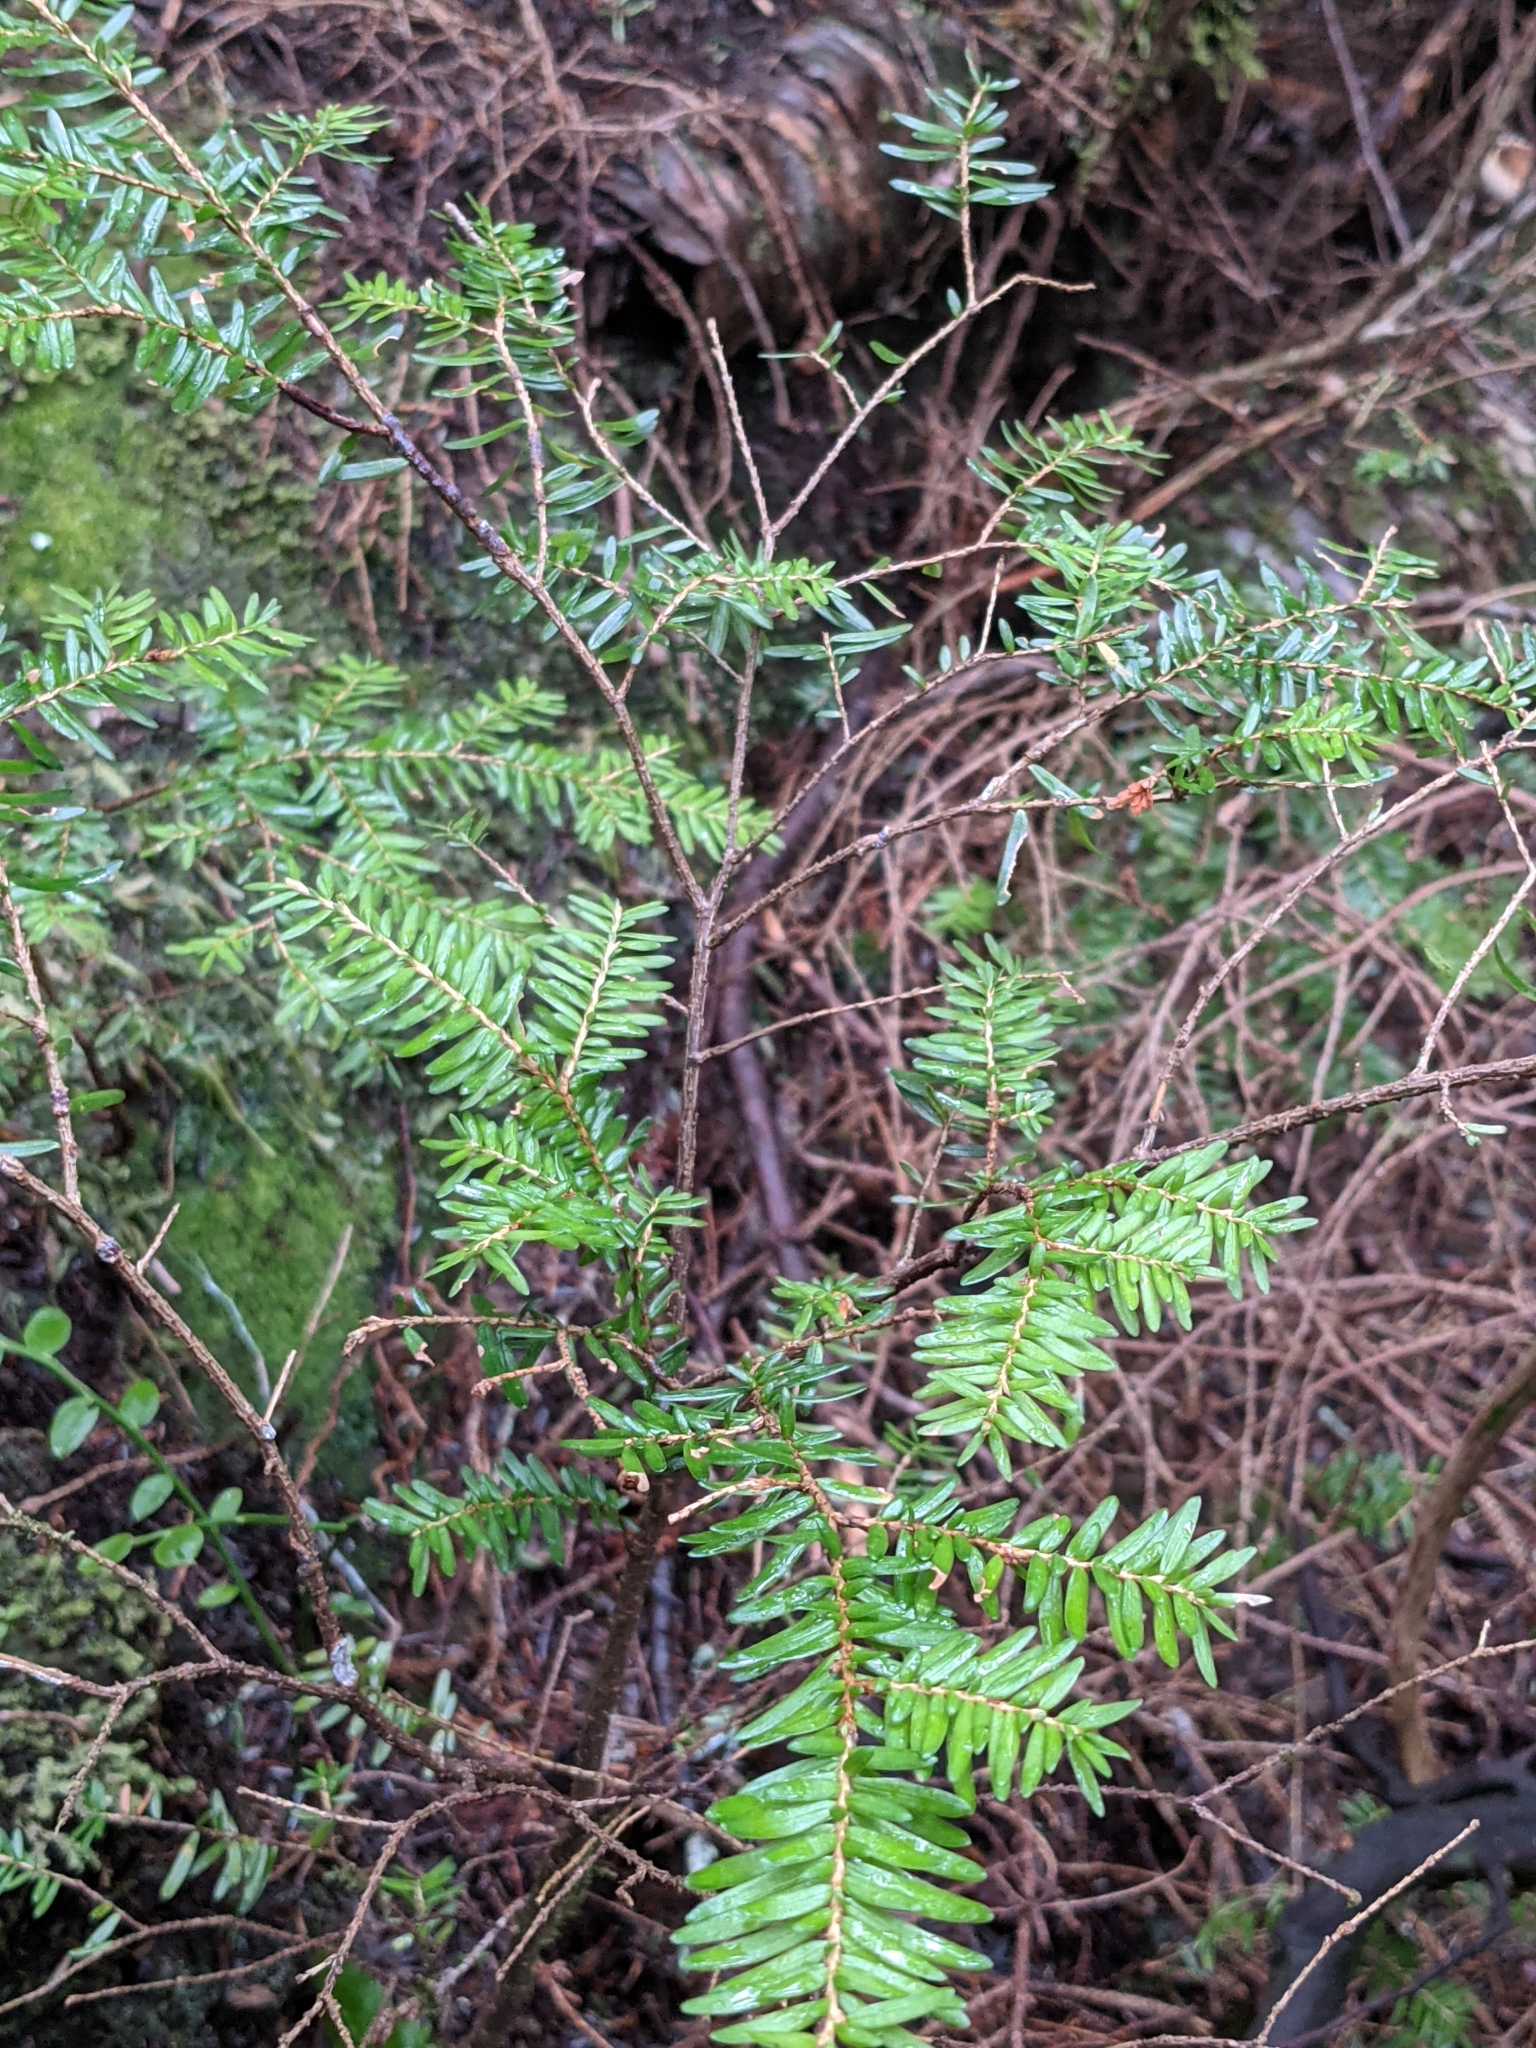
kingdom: Plantae
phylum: Tracheophyta
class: Pinopsida
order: Pinales
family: Pinaceae
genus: Tsuga
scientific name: Tsuga heterophylla
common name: Western hemlock
